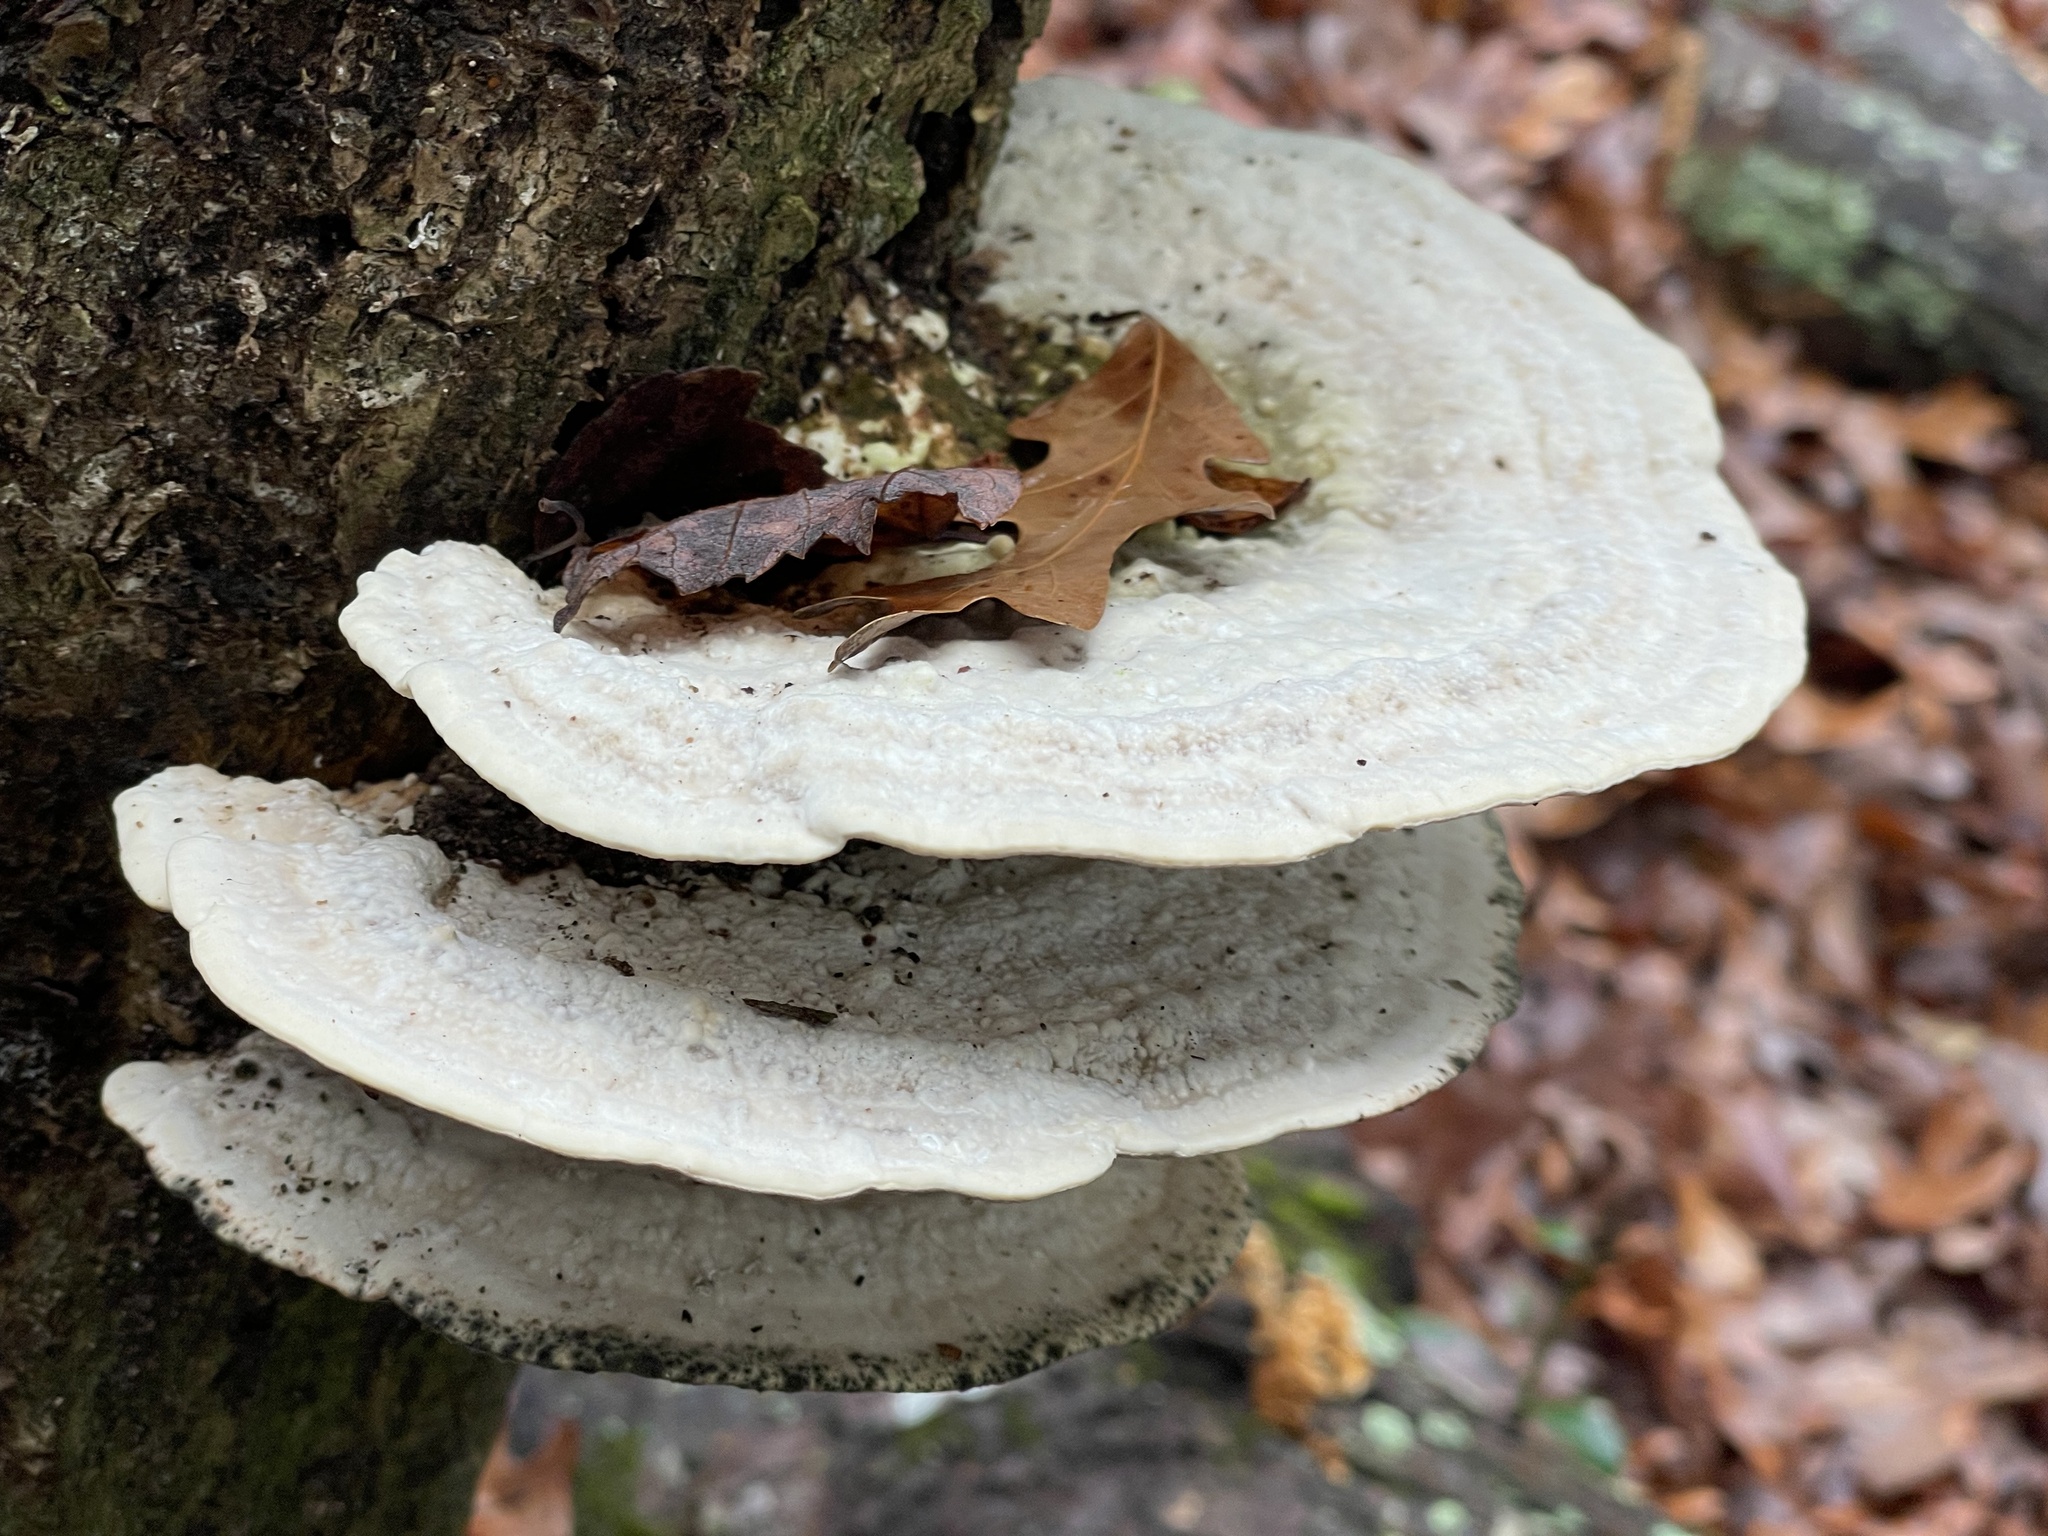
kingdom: Fungi
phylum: Basidiomycota
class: Agaricomycetes
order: Polyporales
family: Polyporaceae
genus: Trametes
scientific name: Trametes gibbosa
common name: Lumpy bracket
